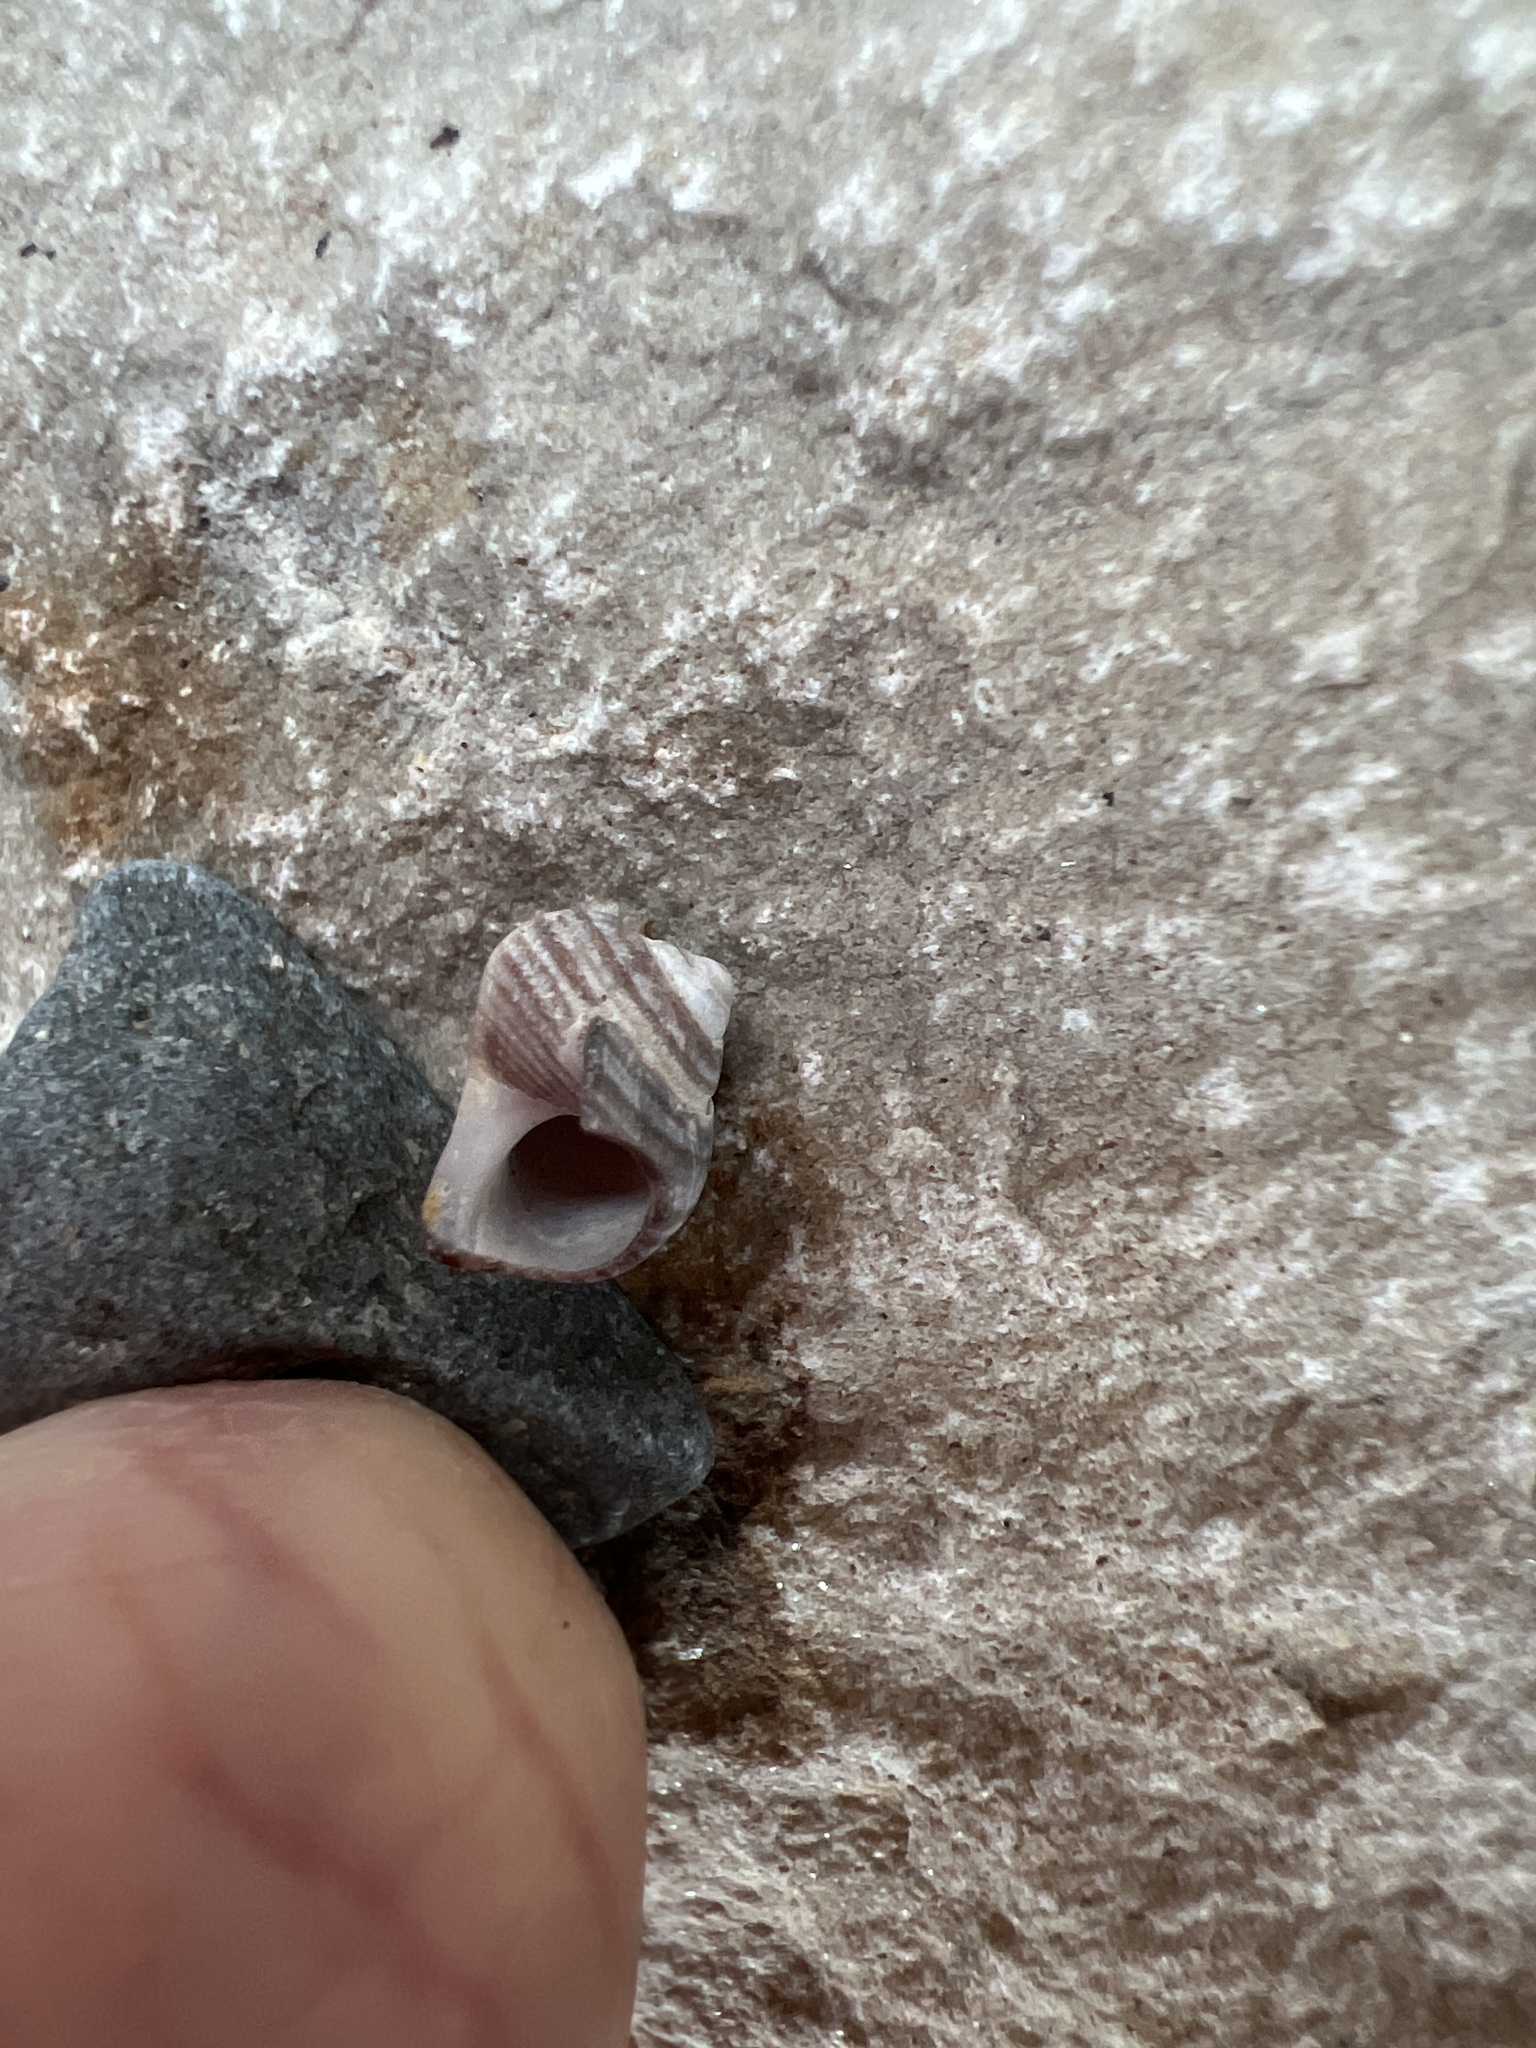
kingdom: Animalia
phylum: Mollusca
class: Gastropoda
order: Littorinimorpha
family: Littorinidae
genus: Littorina
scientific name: Littorina littorea
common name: Common periwinkle
